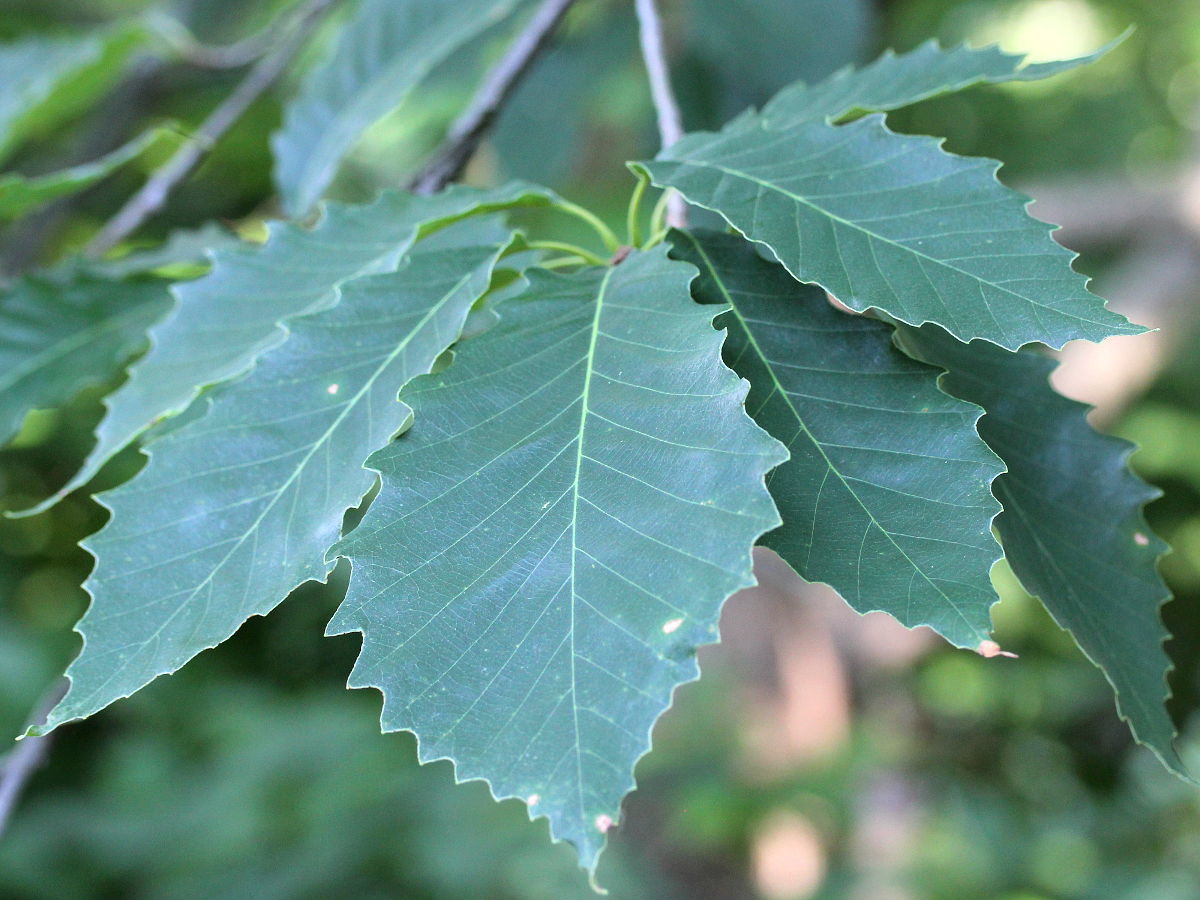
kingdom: Plantae
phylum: Tracheophyta
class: Magnoliopsida
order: Fagales
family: Fagaceae
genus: Quercus
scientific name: Quercus muehlenbergii
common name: Chinkapin oak
